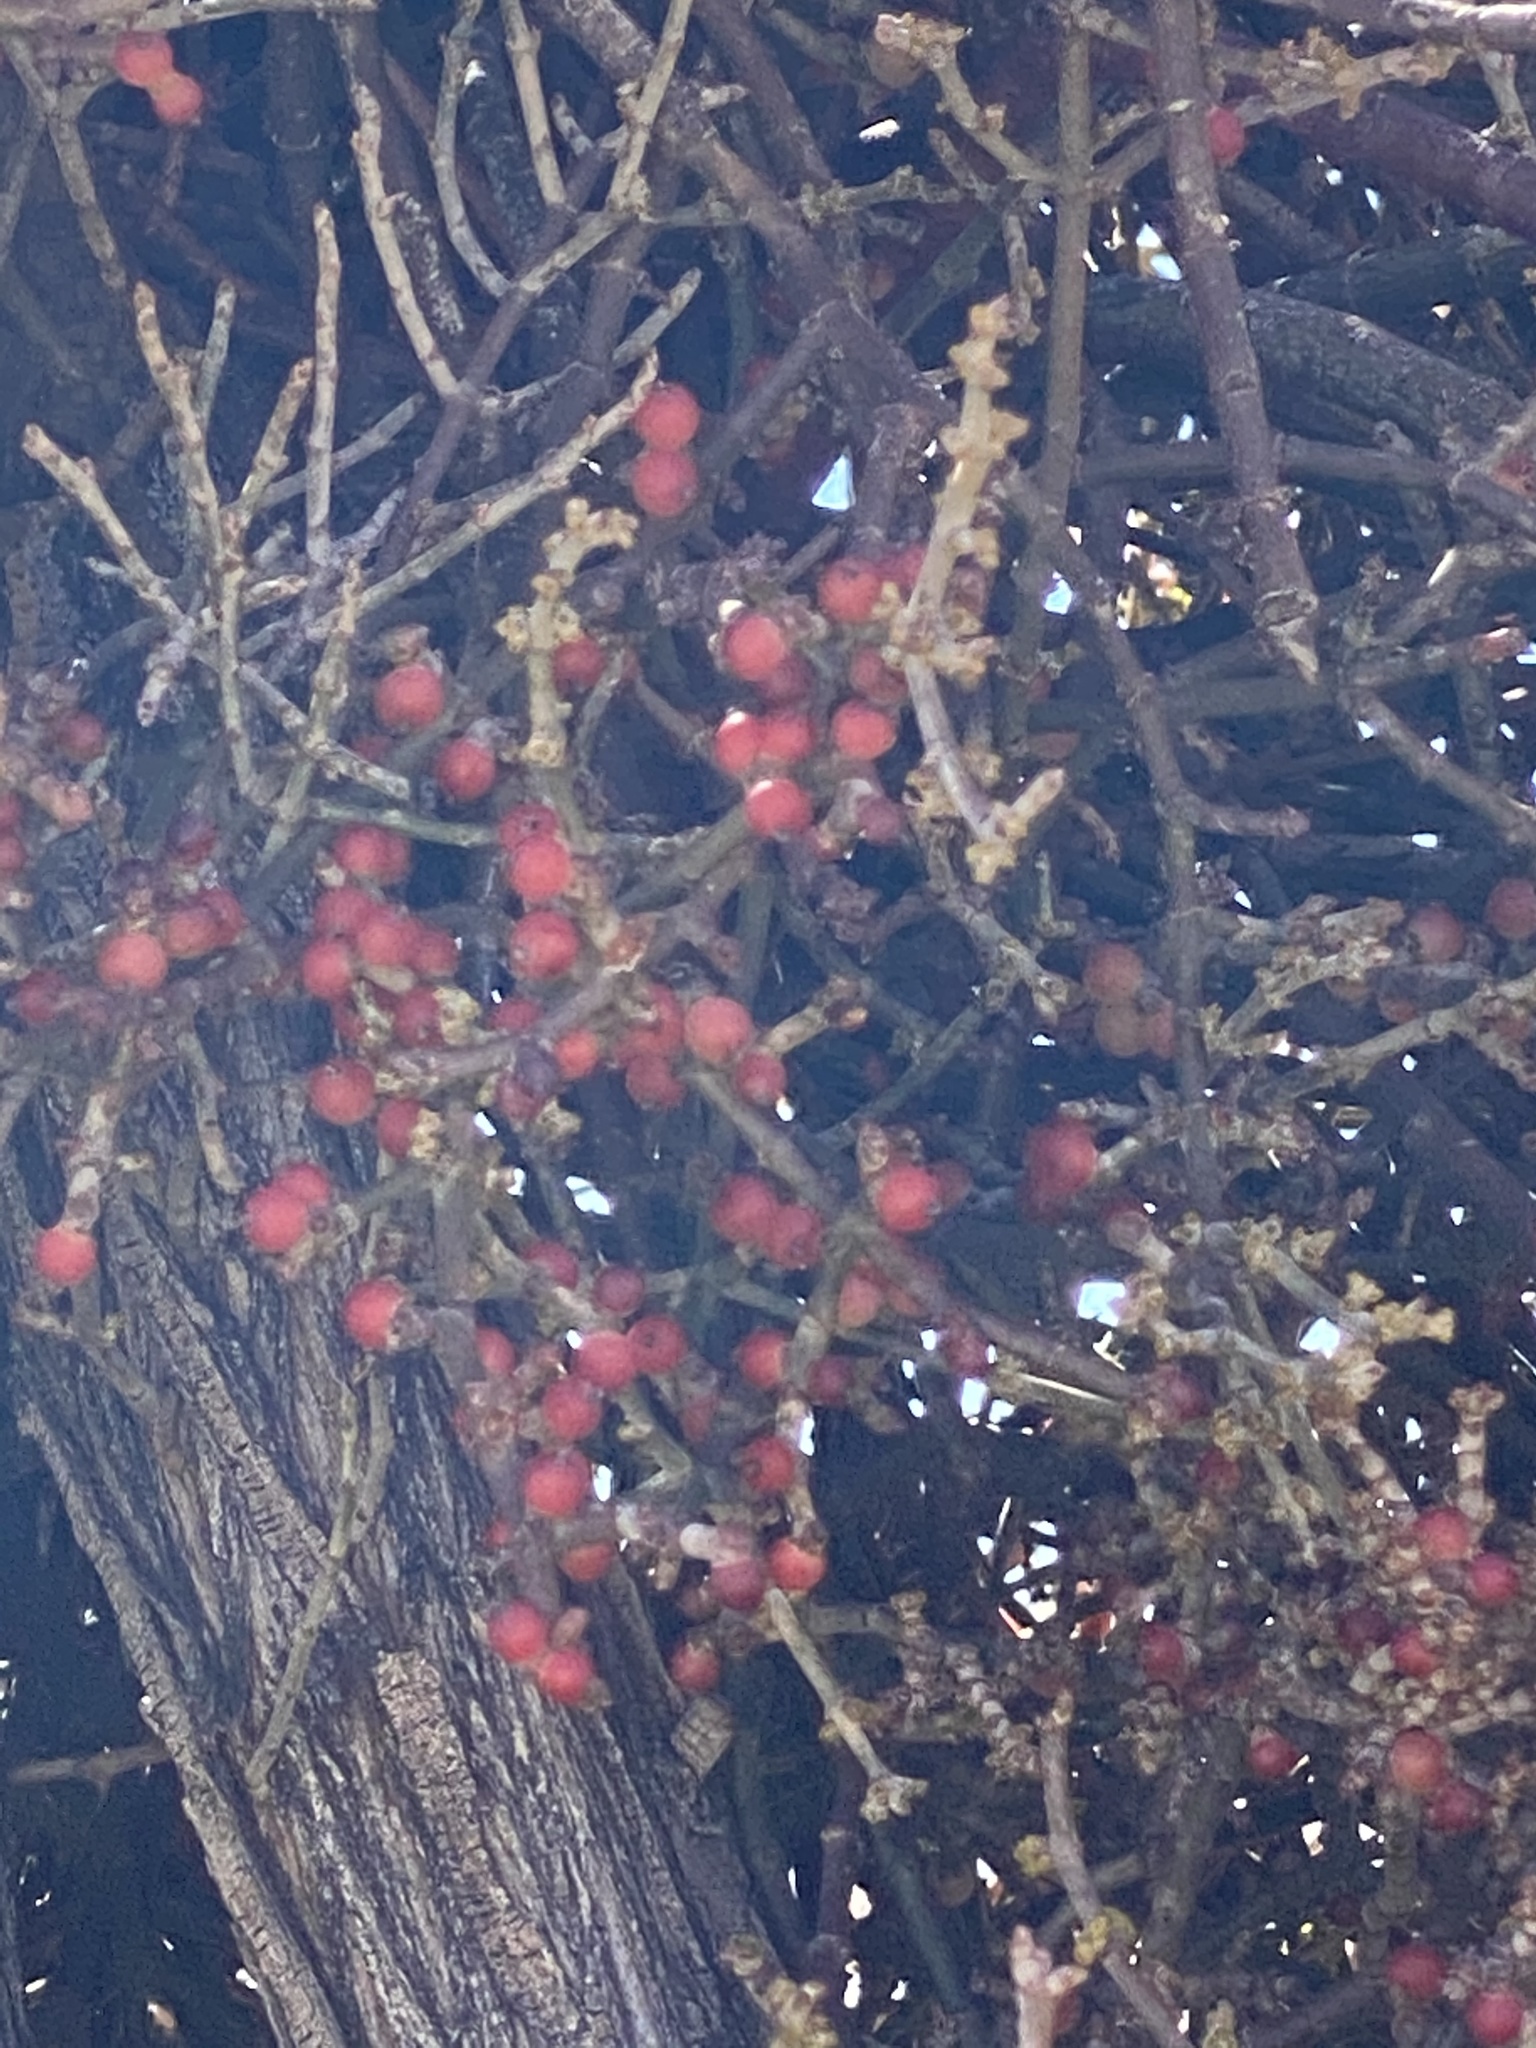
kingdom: Plantae
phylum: Tracheophyta
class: Magnoliopsida
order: Santalales
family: Viscaceae
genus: Phoradendron
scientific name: Phoradendron californicum
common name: Acacia mistletoe
